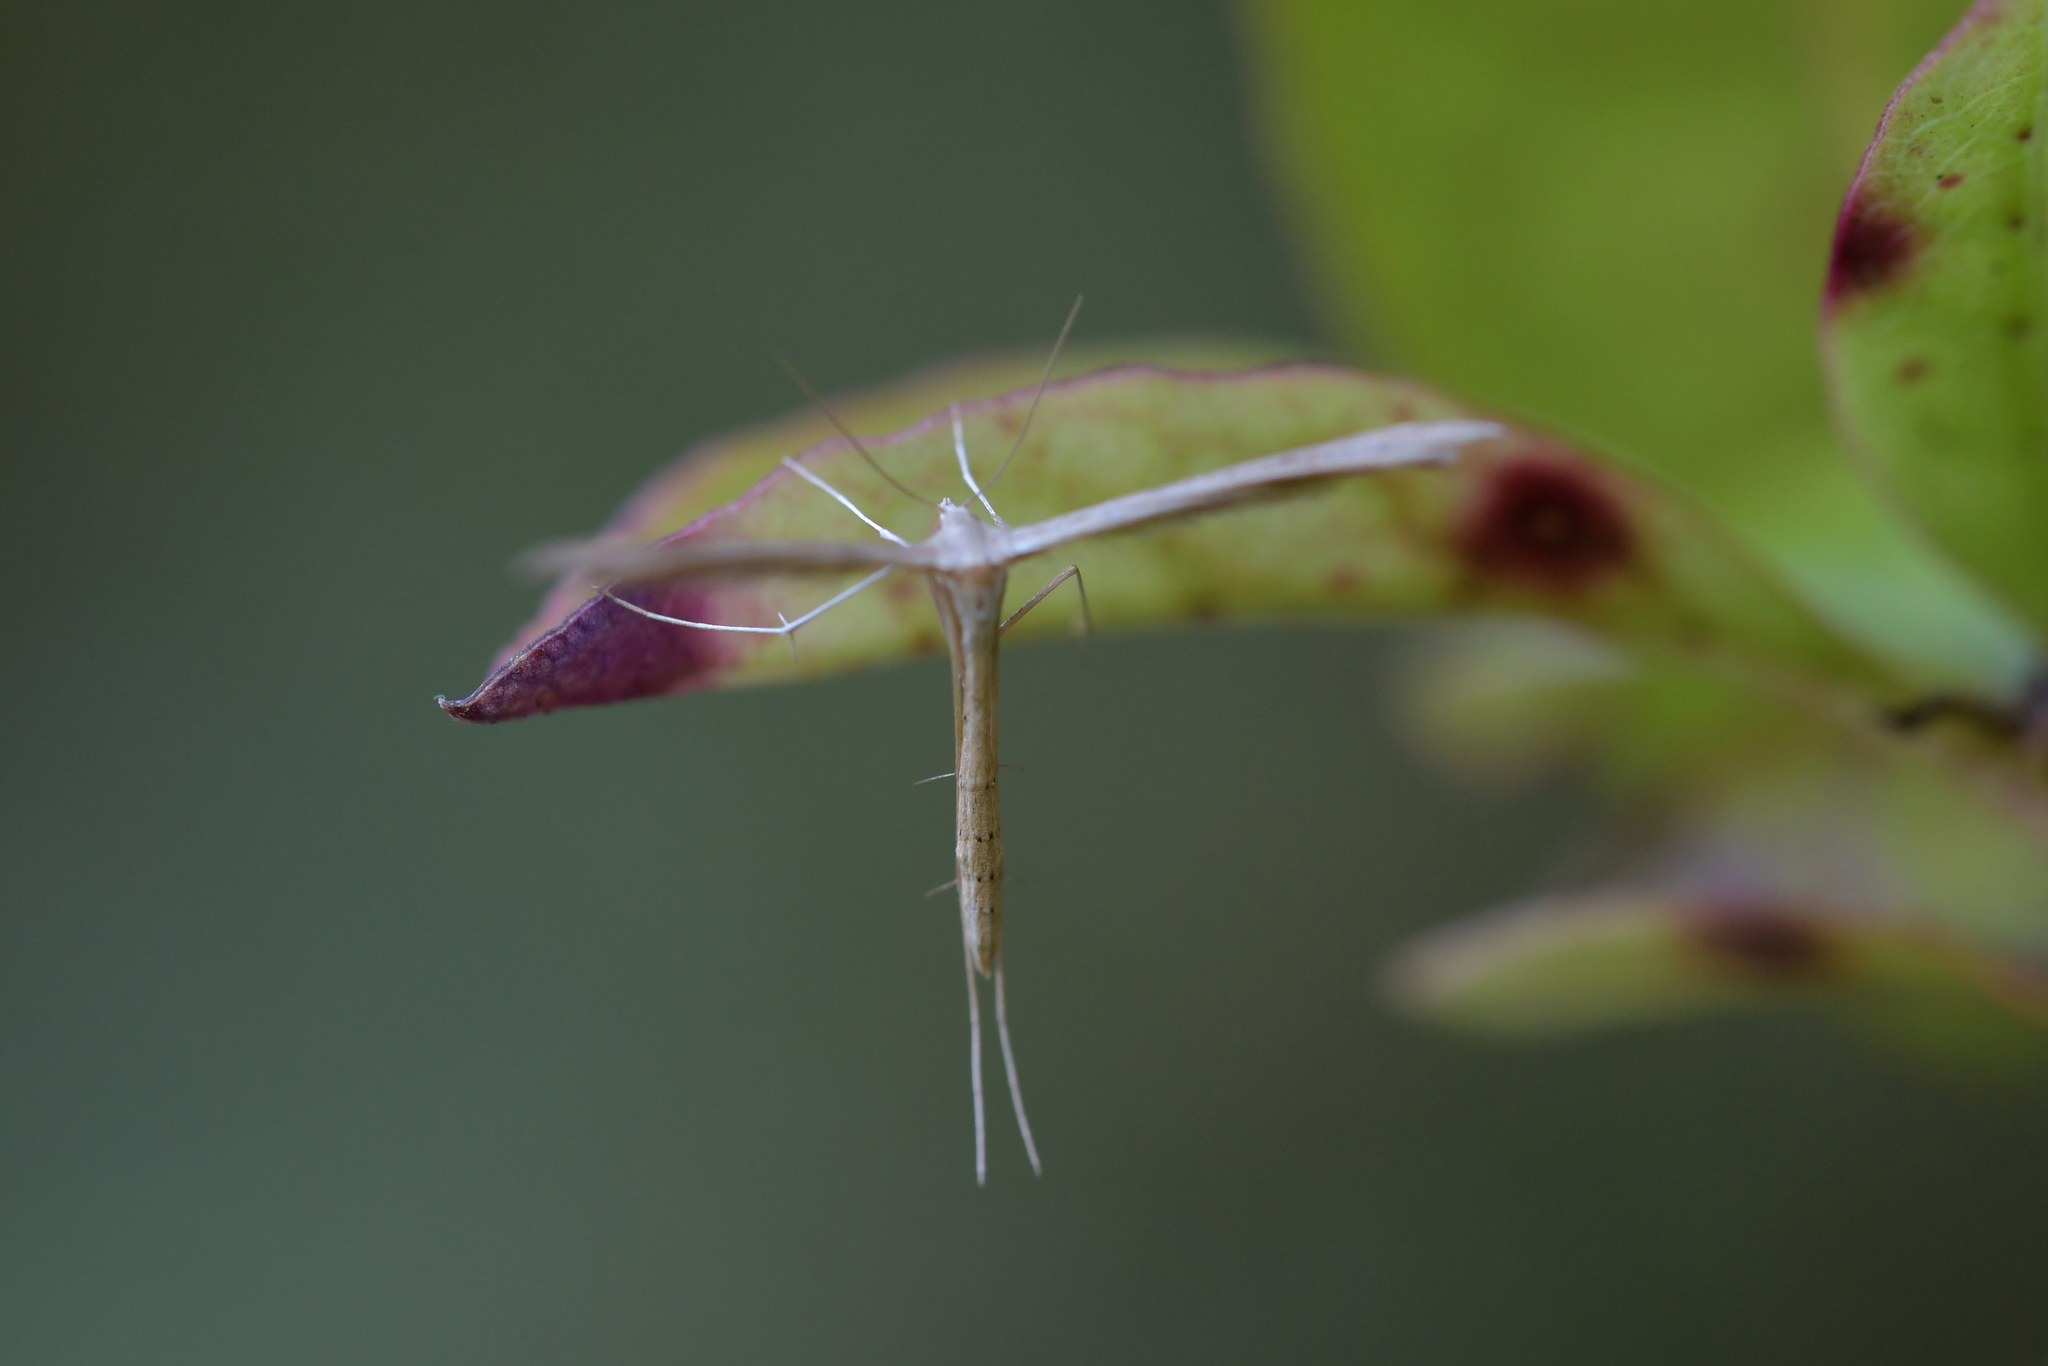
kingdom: Animalia
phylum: Arthropoda
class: Insecta
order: Lepidoptera
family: Pterophoridae
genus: Stenoptilia
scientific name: Stenoptilia zophodactylus
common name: Dowdy plume
